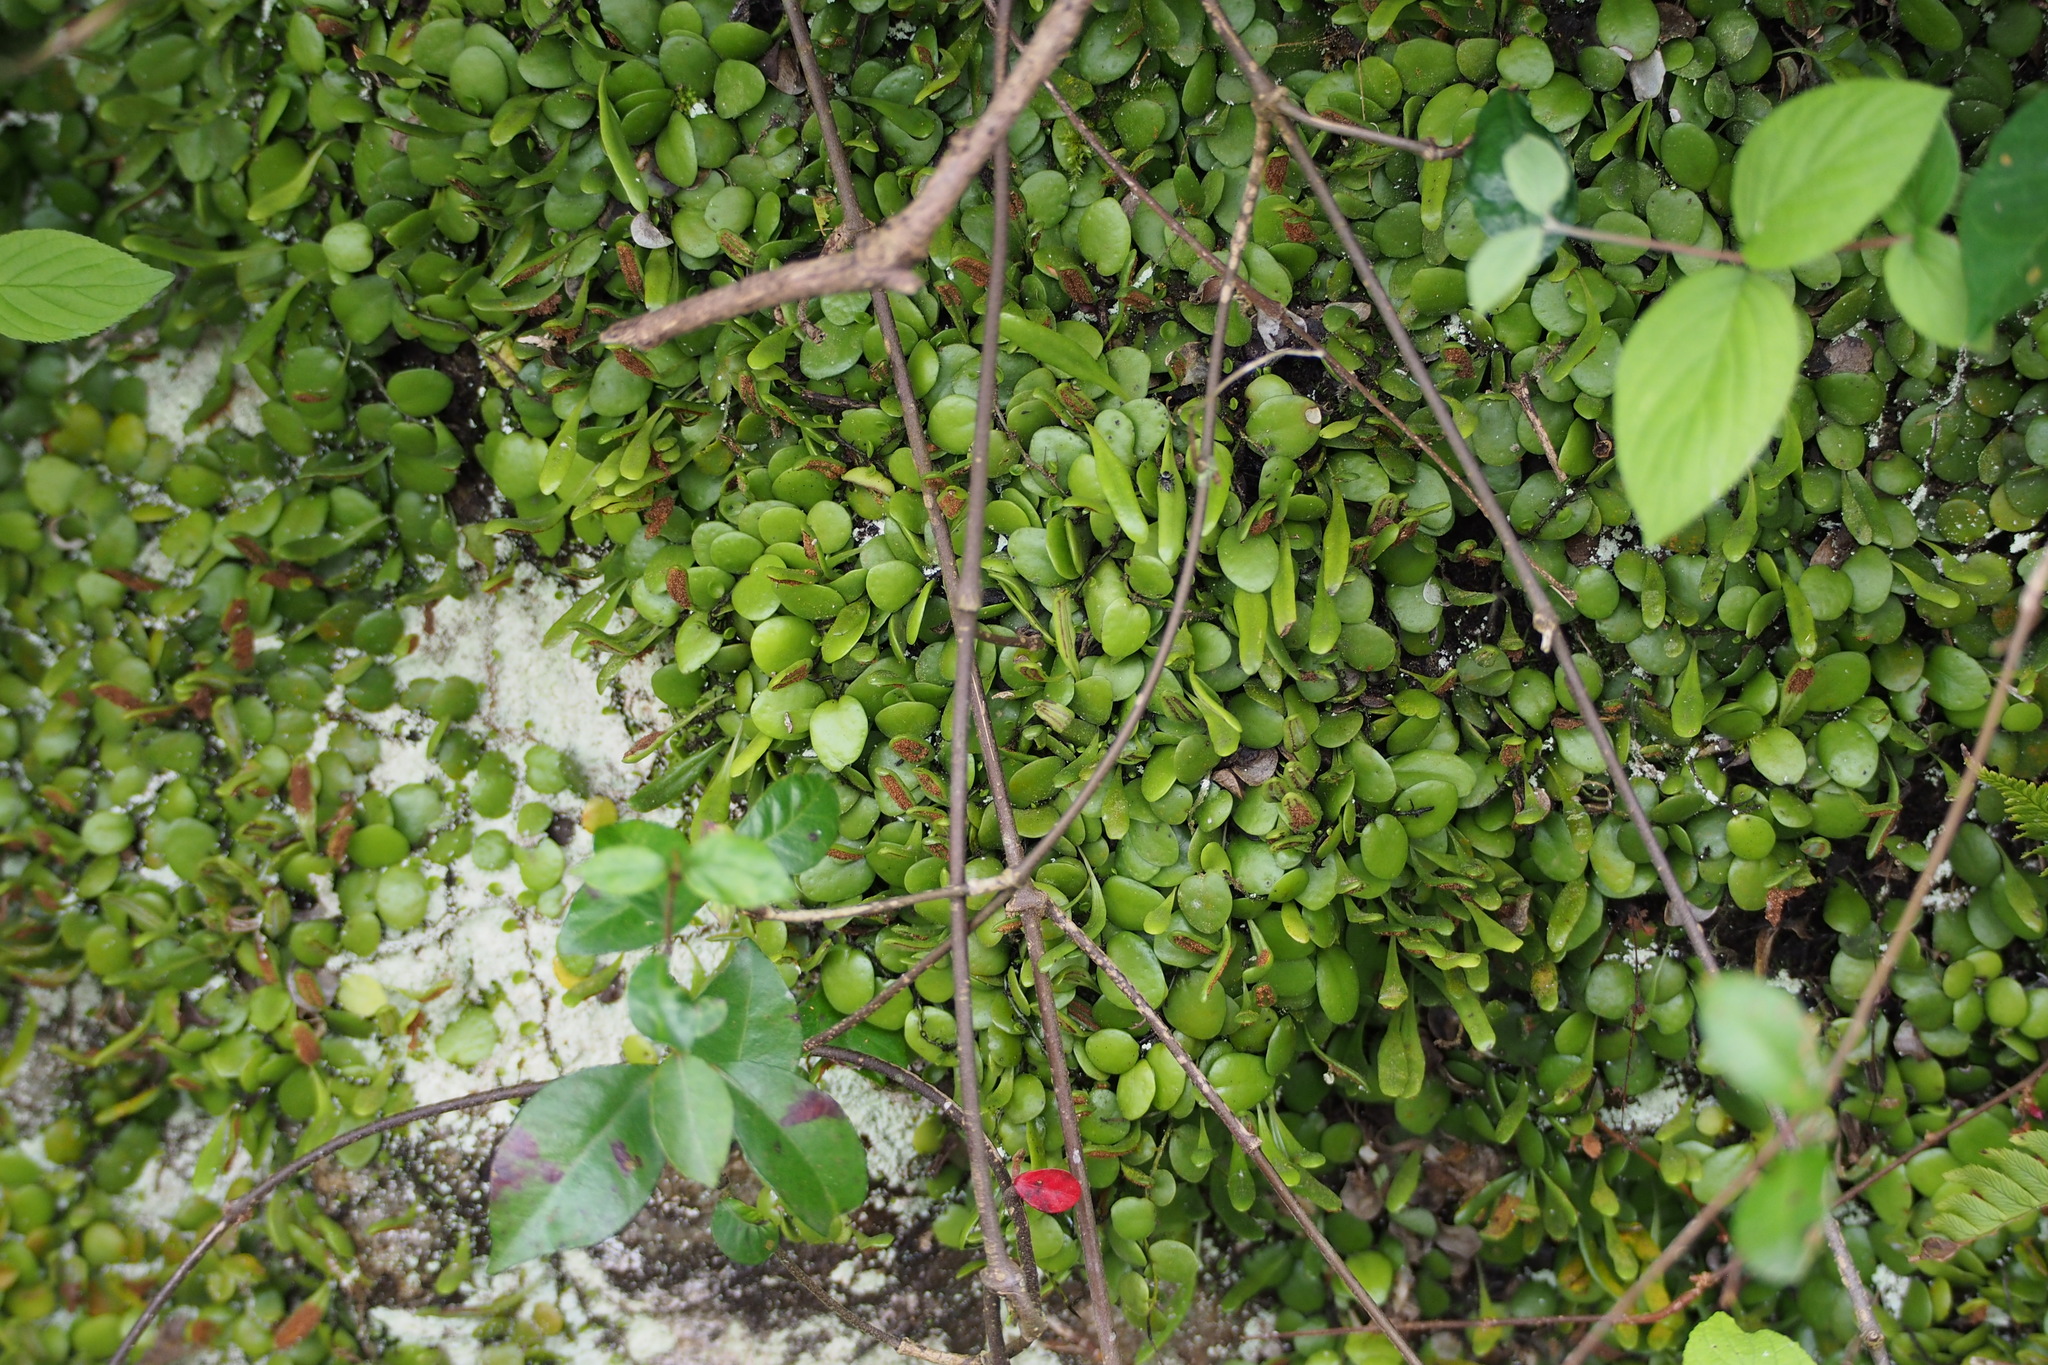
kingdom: Plantae
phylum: Tracheophyta
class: Polypodiopsida
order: Polypodiales
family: Polypodiaceae
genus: Lepisorus
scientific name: Lepisorus microphyllus
